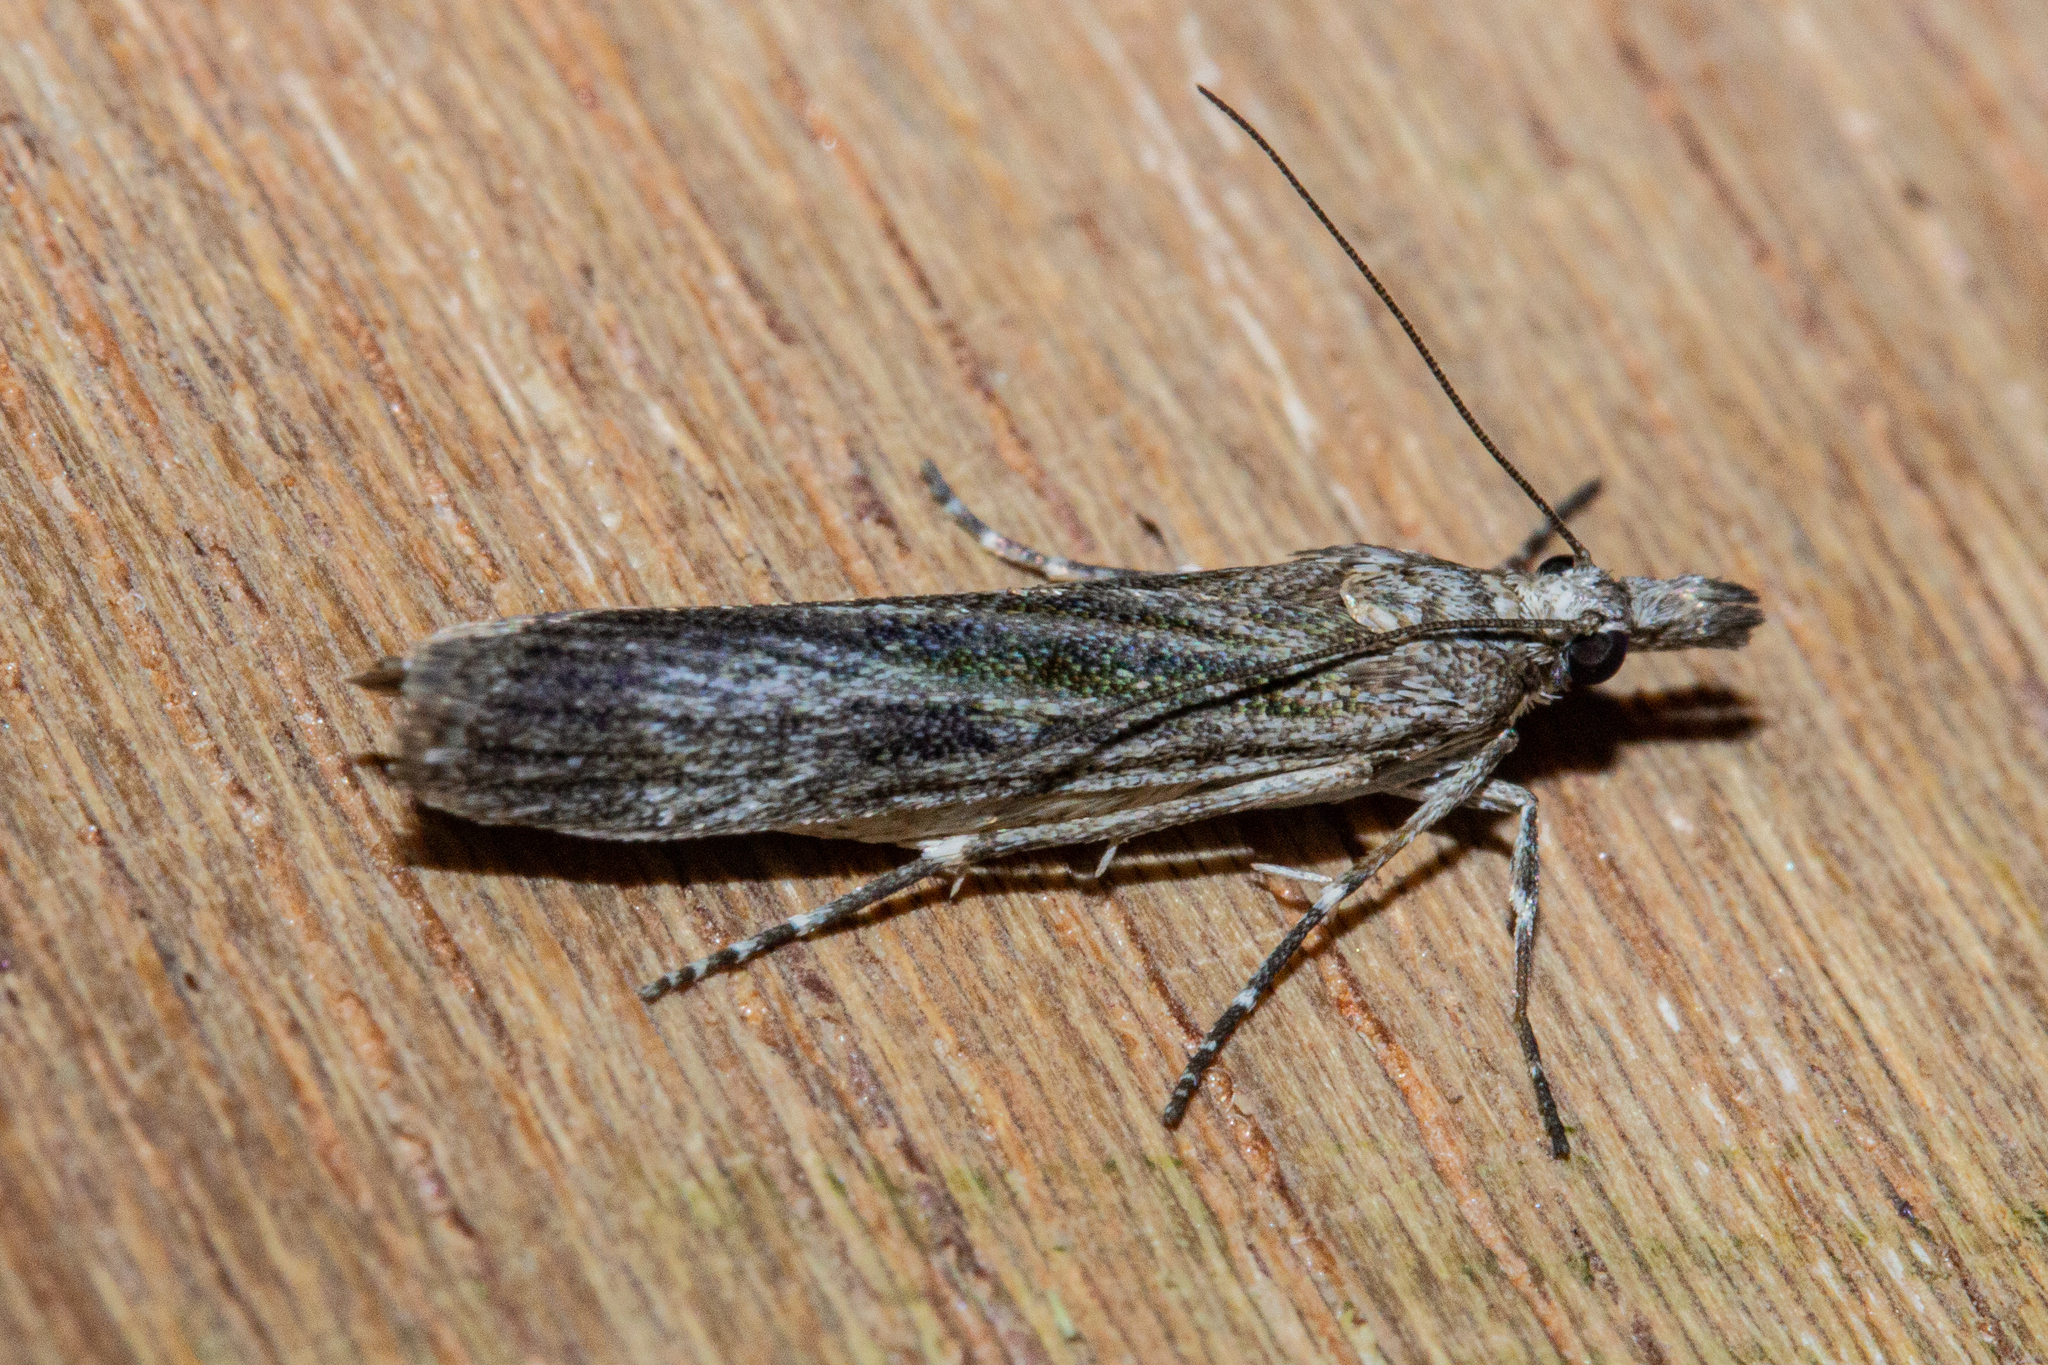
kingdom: Animalia
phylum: Arthropoda
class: Insecta
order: Lepidoptera
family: Crambidae
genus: Eudonia
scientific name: Eudonia atmogramma
